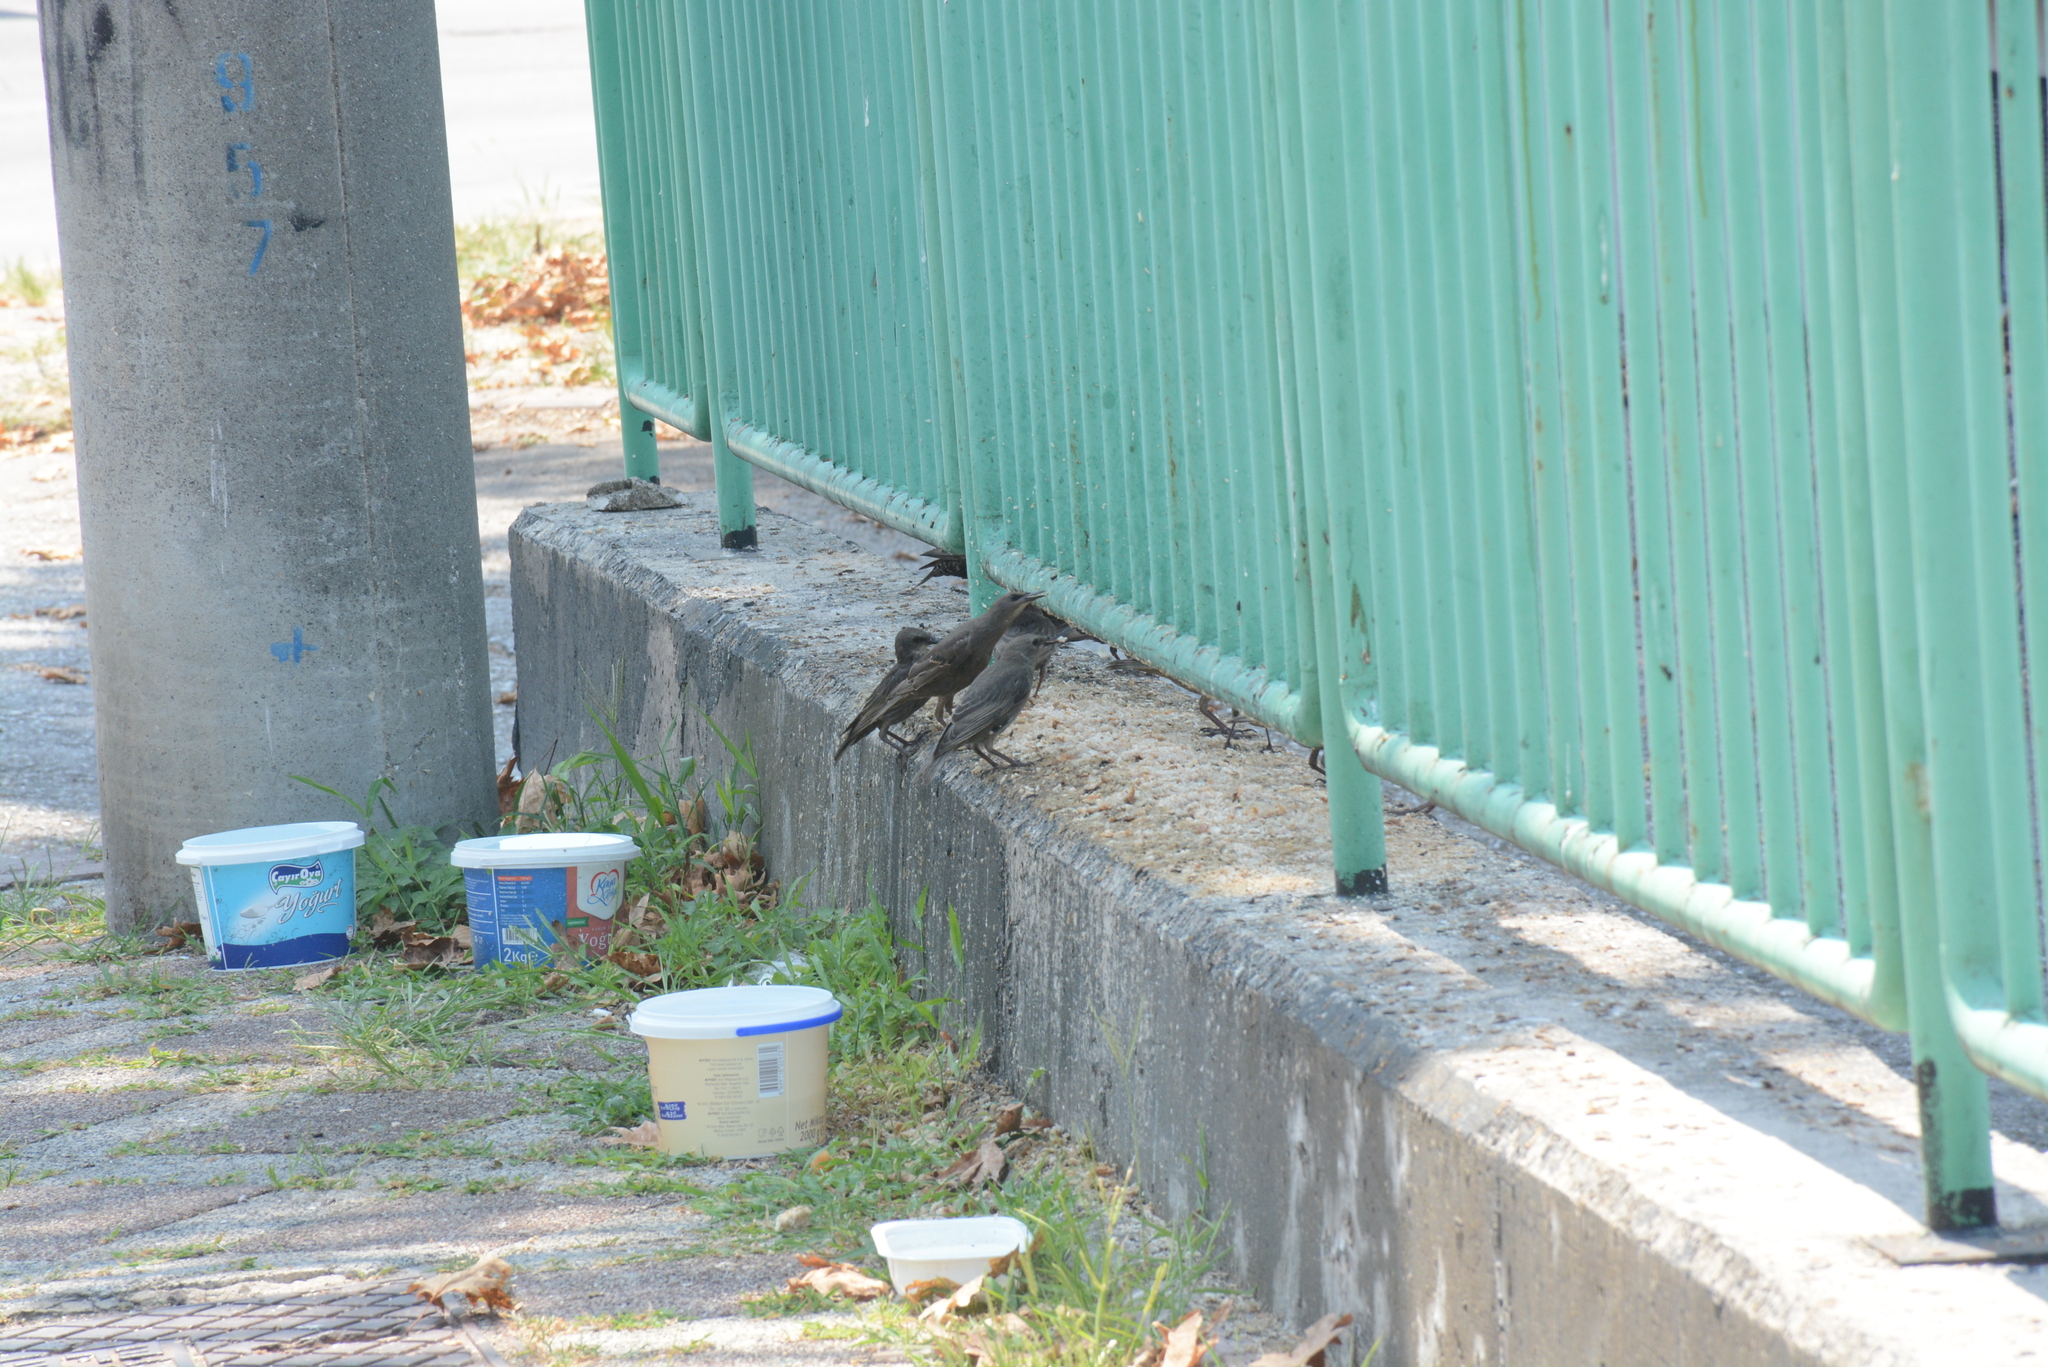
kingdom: Animalia
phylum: Chordata
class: Aves
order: Passeriformes
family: Sturnidae
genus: Sturnus
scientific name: Sturnus vulgaris
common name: Common starling
